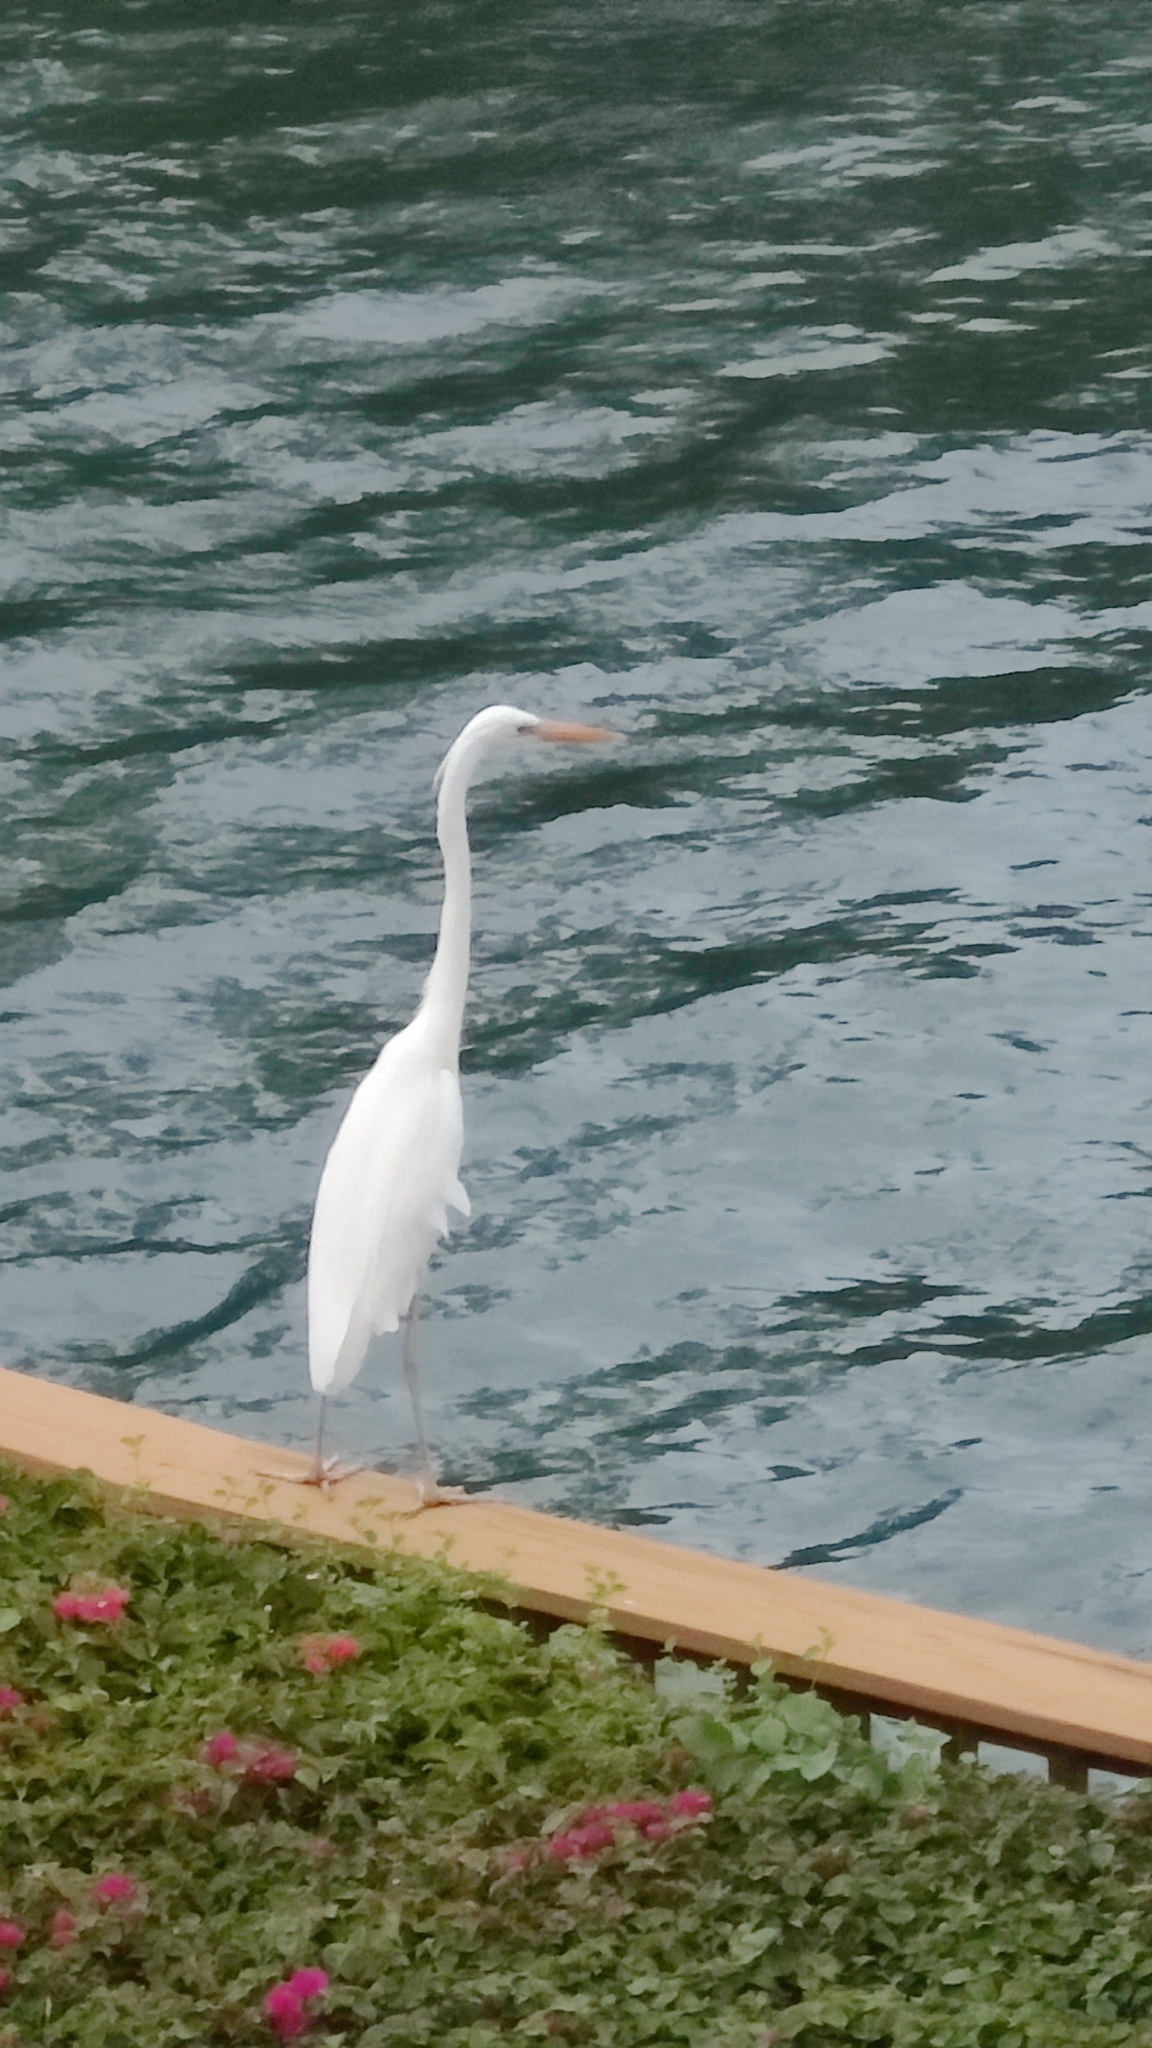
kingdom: Animalia
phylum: Chordata
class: Aves
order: Pelecaniformes
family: Ardeidae
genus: Ardea
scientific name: Ardea alba
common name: Great egret
